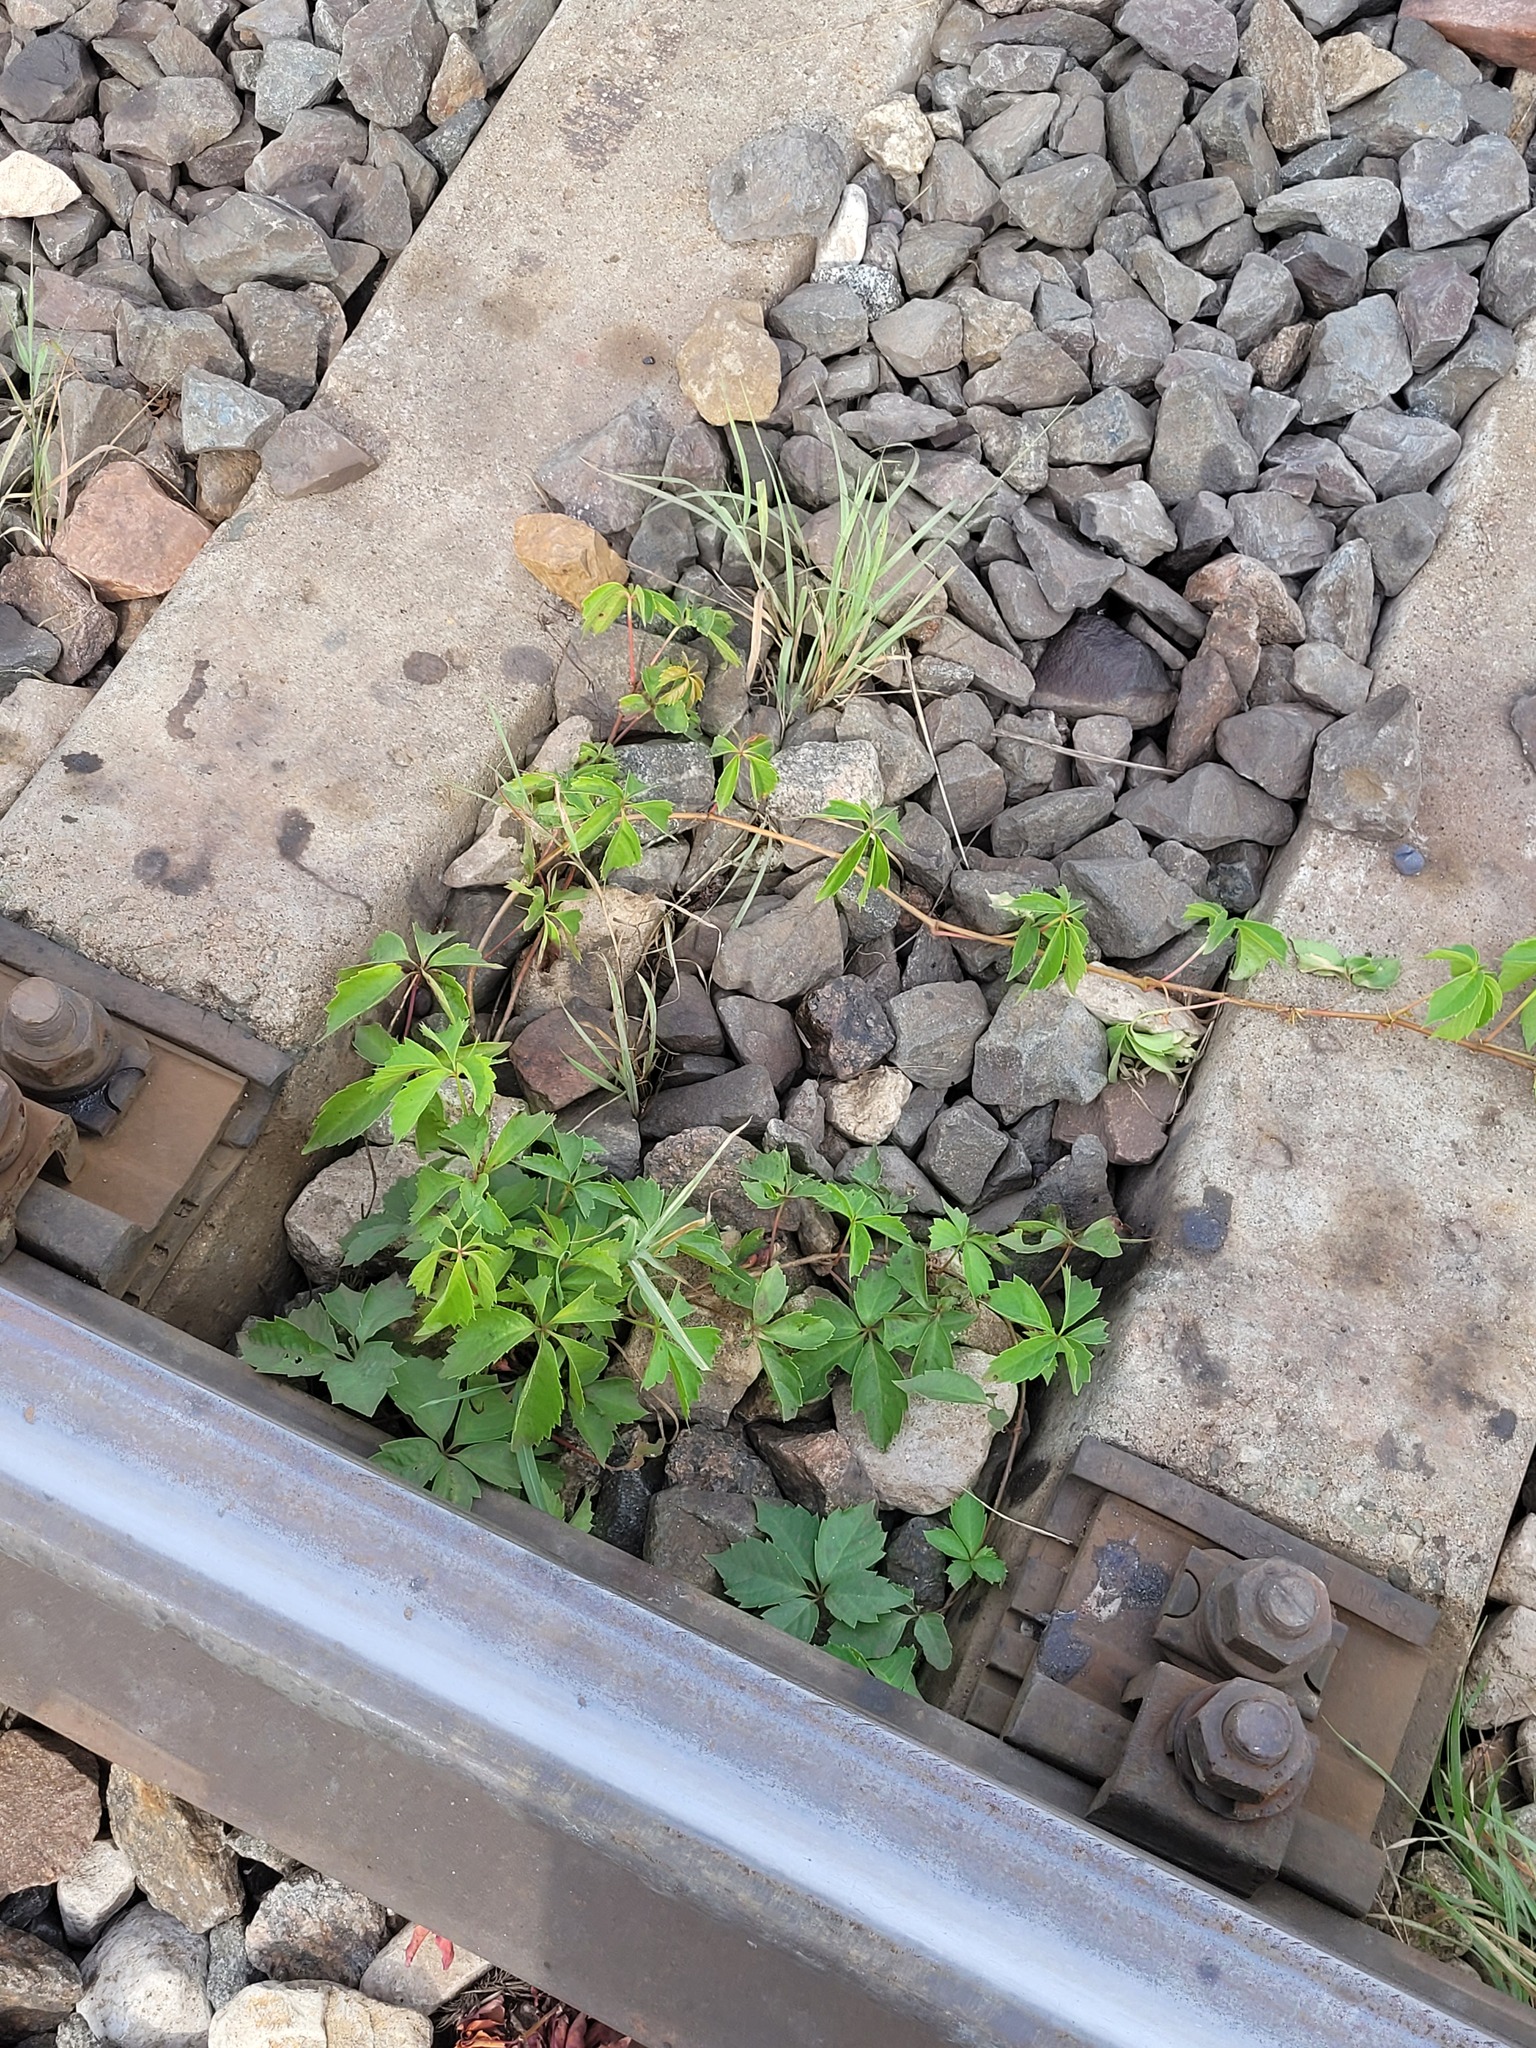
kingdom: Plantae
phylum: Tracheophyta
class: Magnoliopsida
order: Vitales
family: Vitaceae
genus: Parthenocissus
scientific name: Parthenocissus inserta
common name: False virginia-creeper
